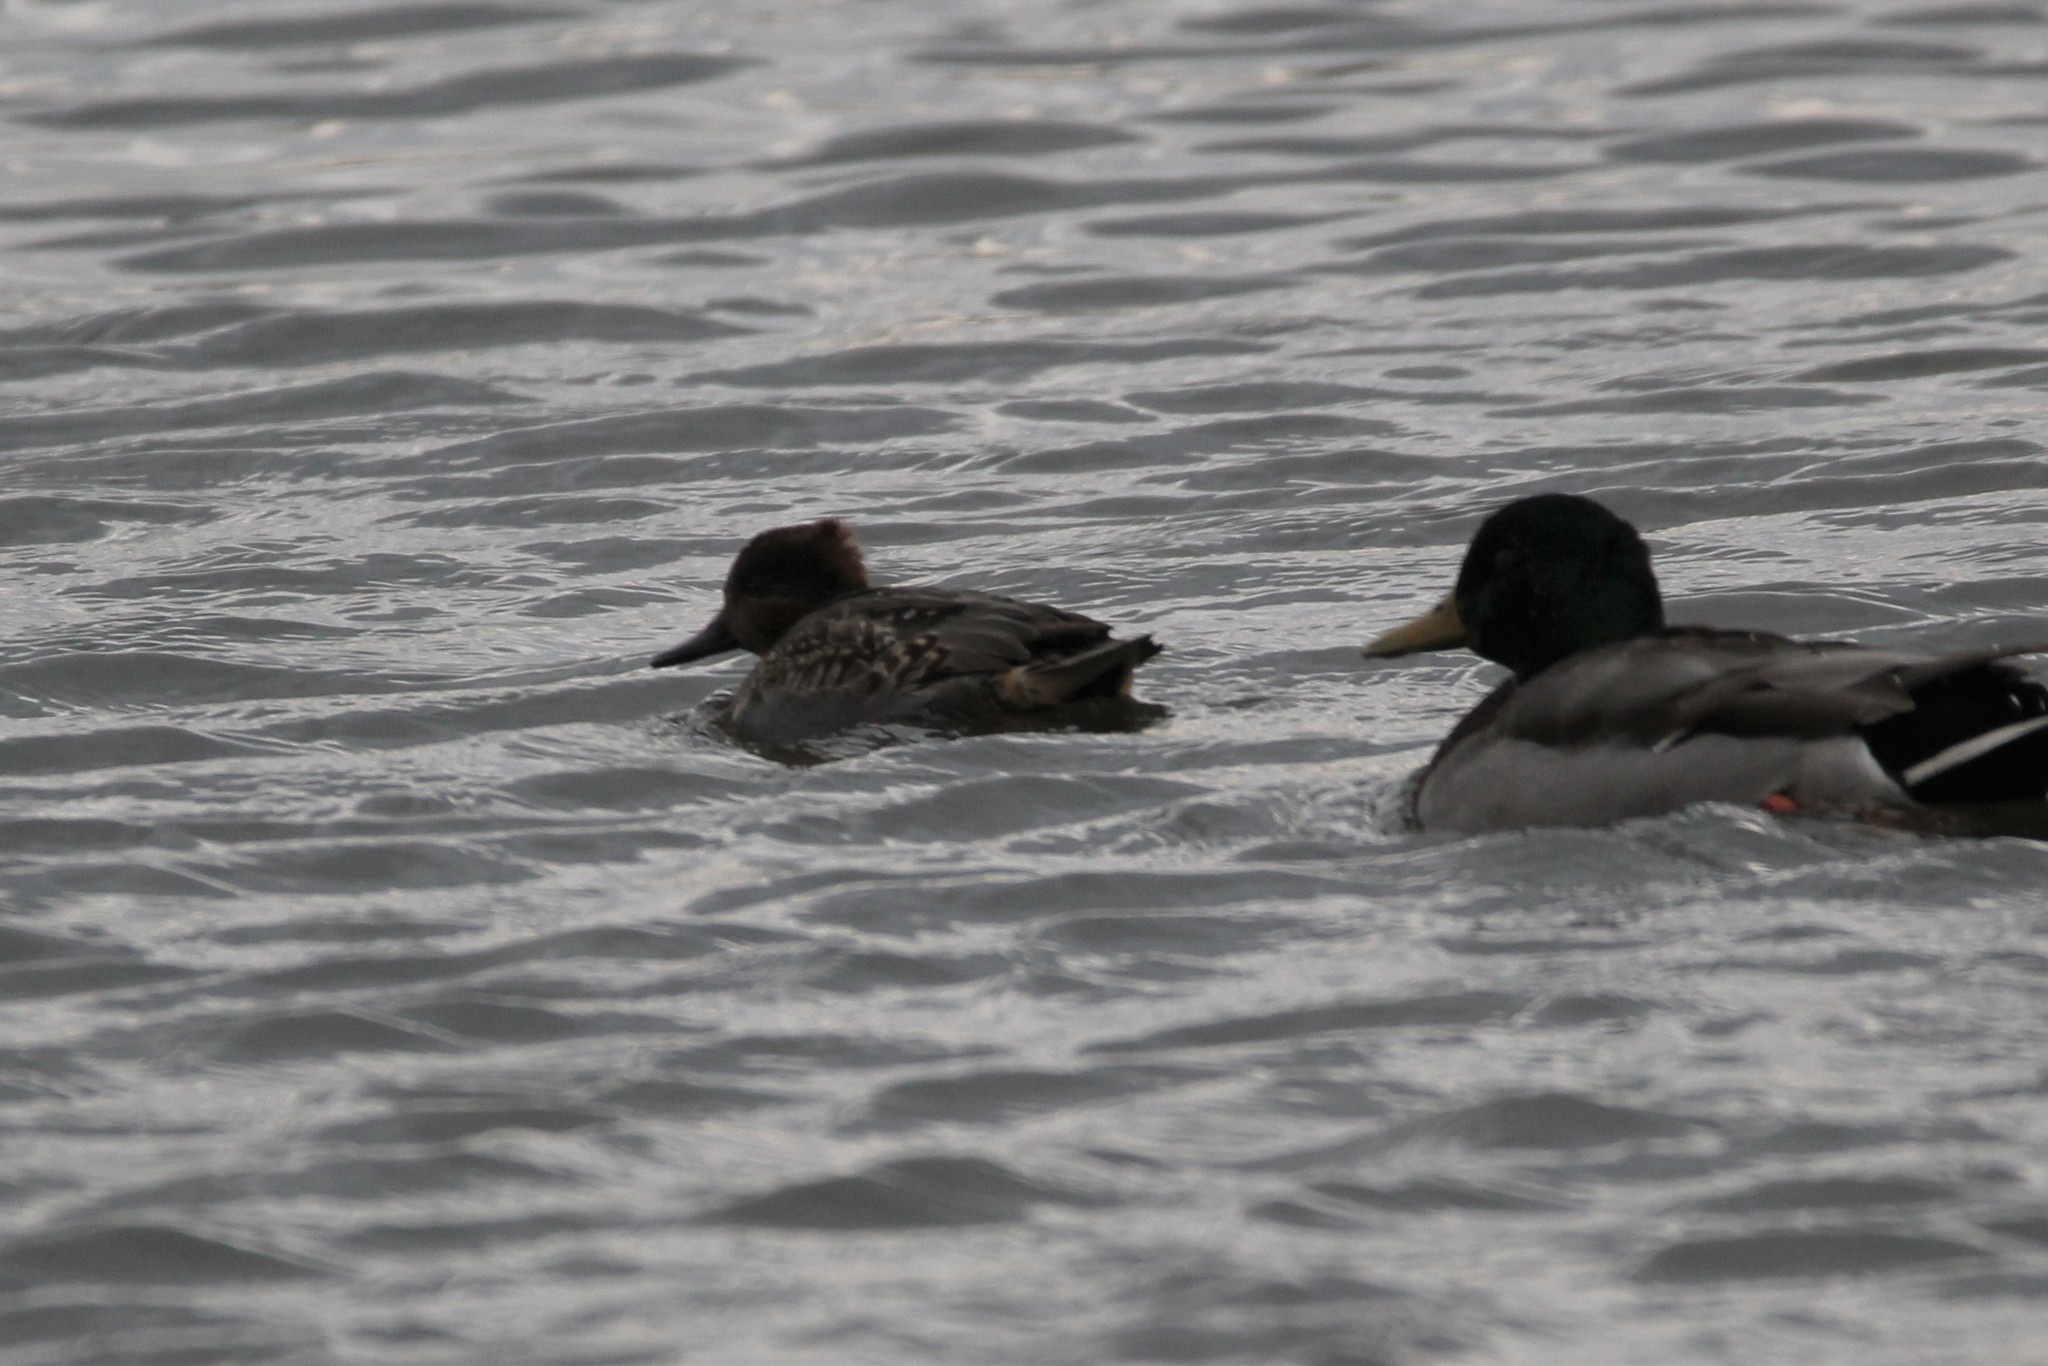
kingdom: Animalia
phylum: Chordata
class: Aves
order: Anseriformes
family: Anatidae
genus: Anas
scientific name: Anas crecca
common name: Eurasian teal
